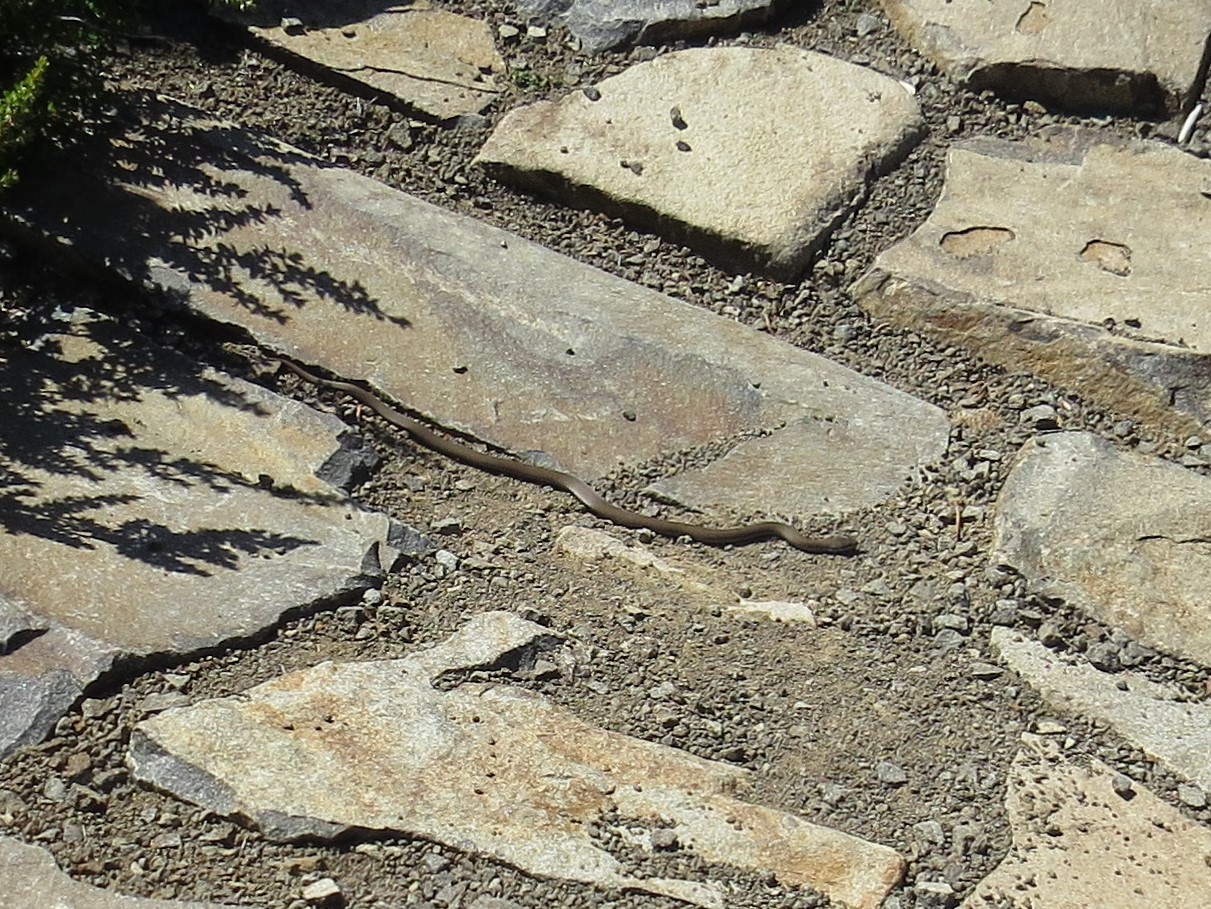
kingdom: Animalia
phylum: Chordata
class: Squamata
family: Elapidae
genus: Drysdalia
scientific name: Drysdalia coronoides
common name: White-lipped snake
